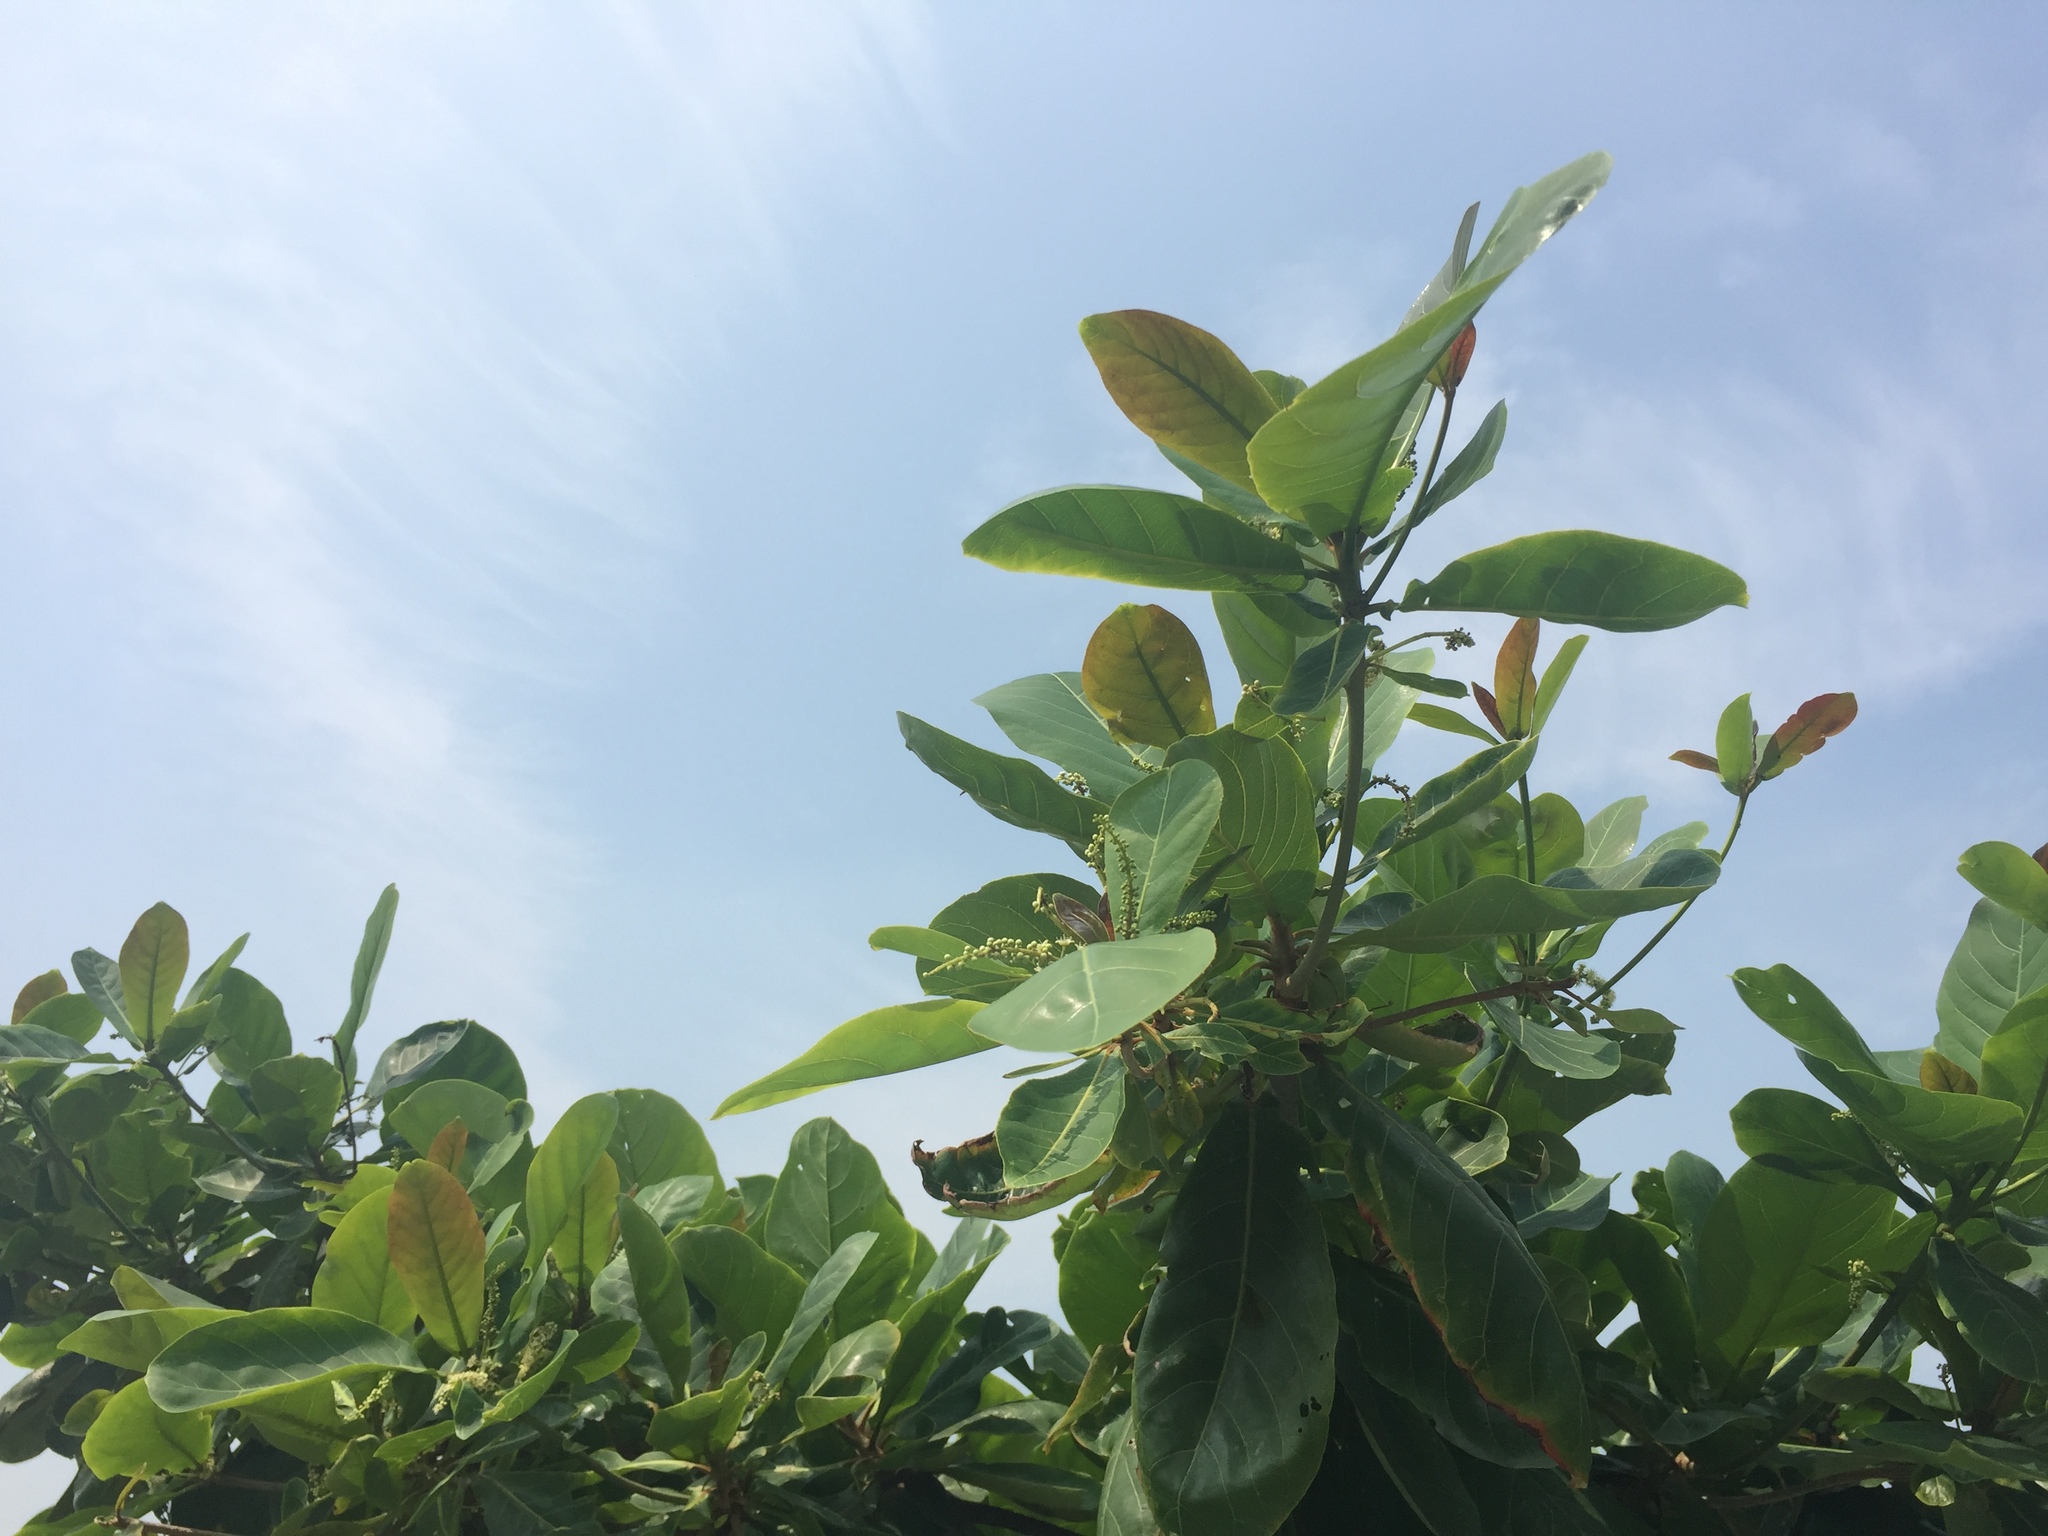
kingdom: Plantae
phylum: Tracheophyta
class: Magnoliopsida
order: Myrtales
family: Combretaceae
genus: Terminalia
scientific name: Terminalia catappa
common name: Tropical almond
